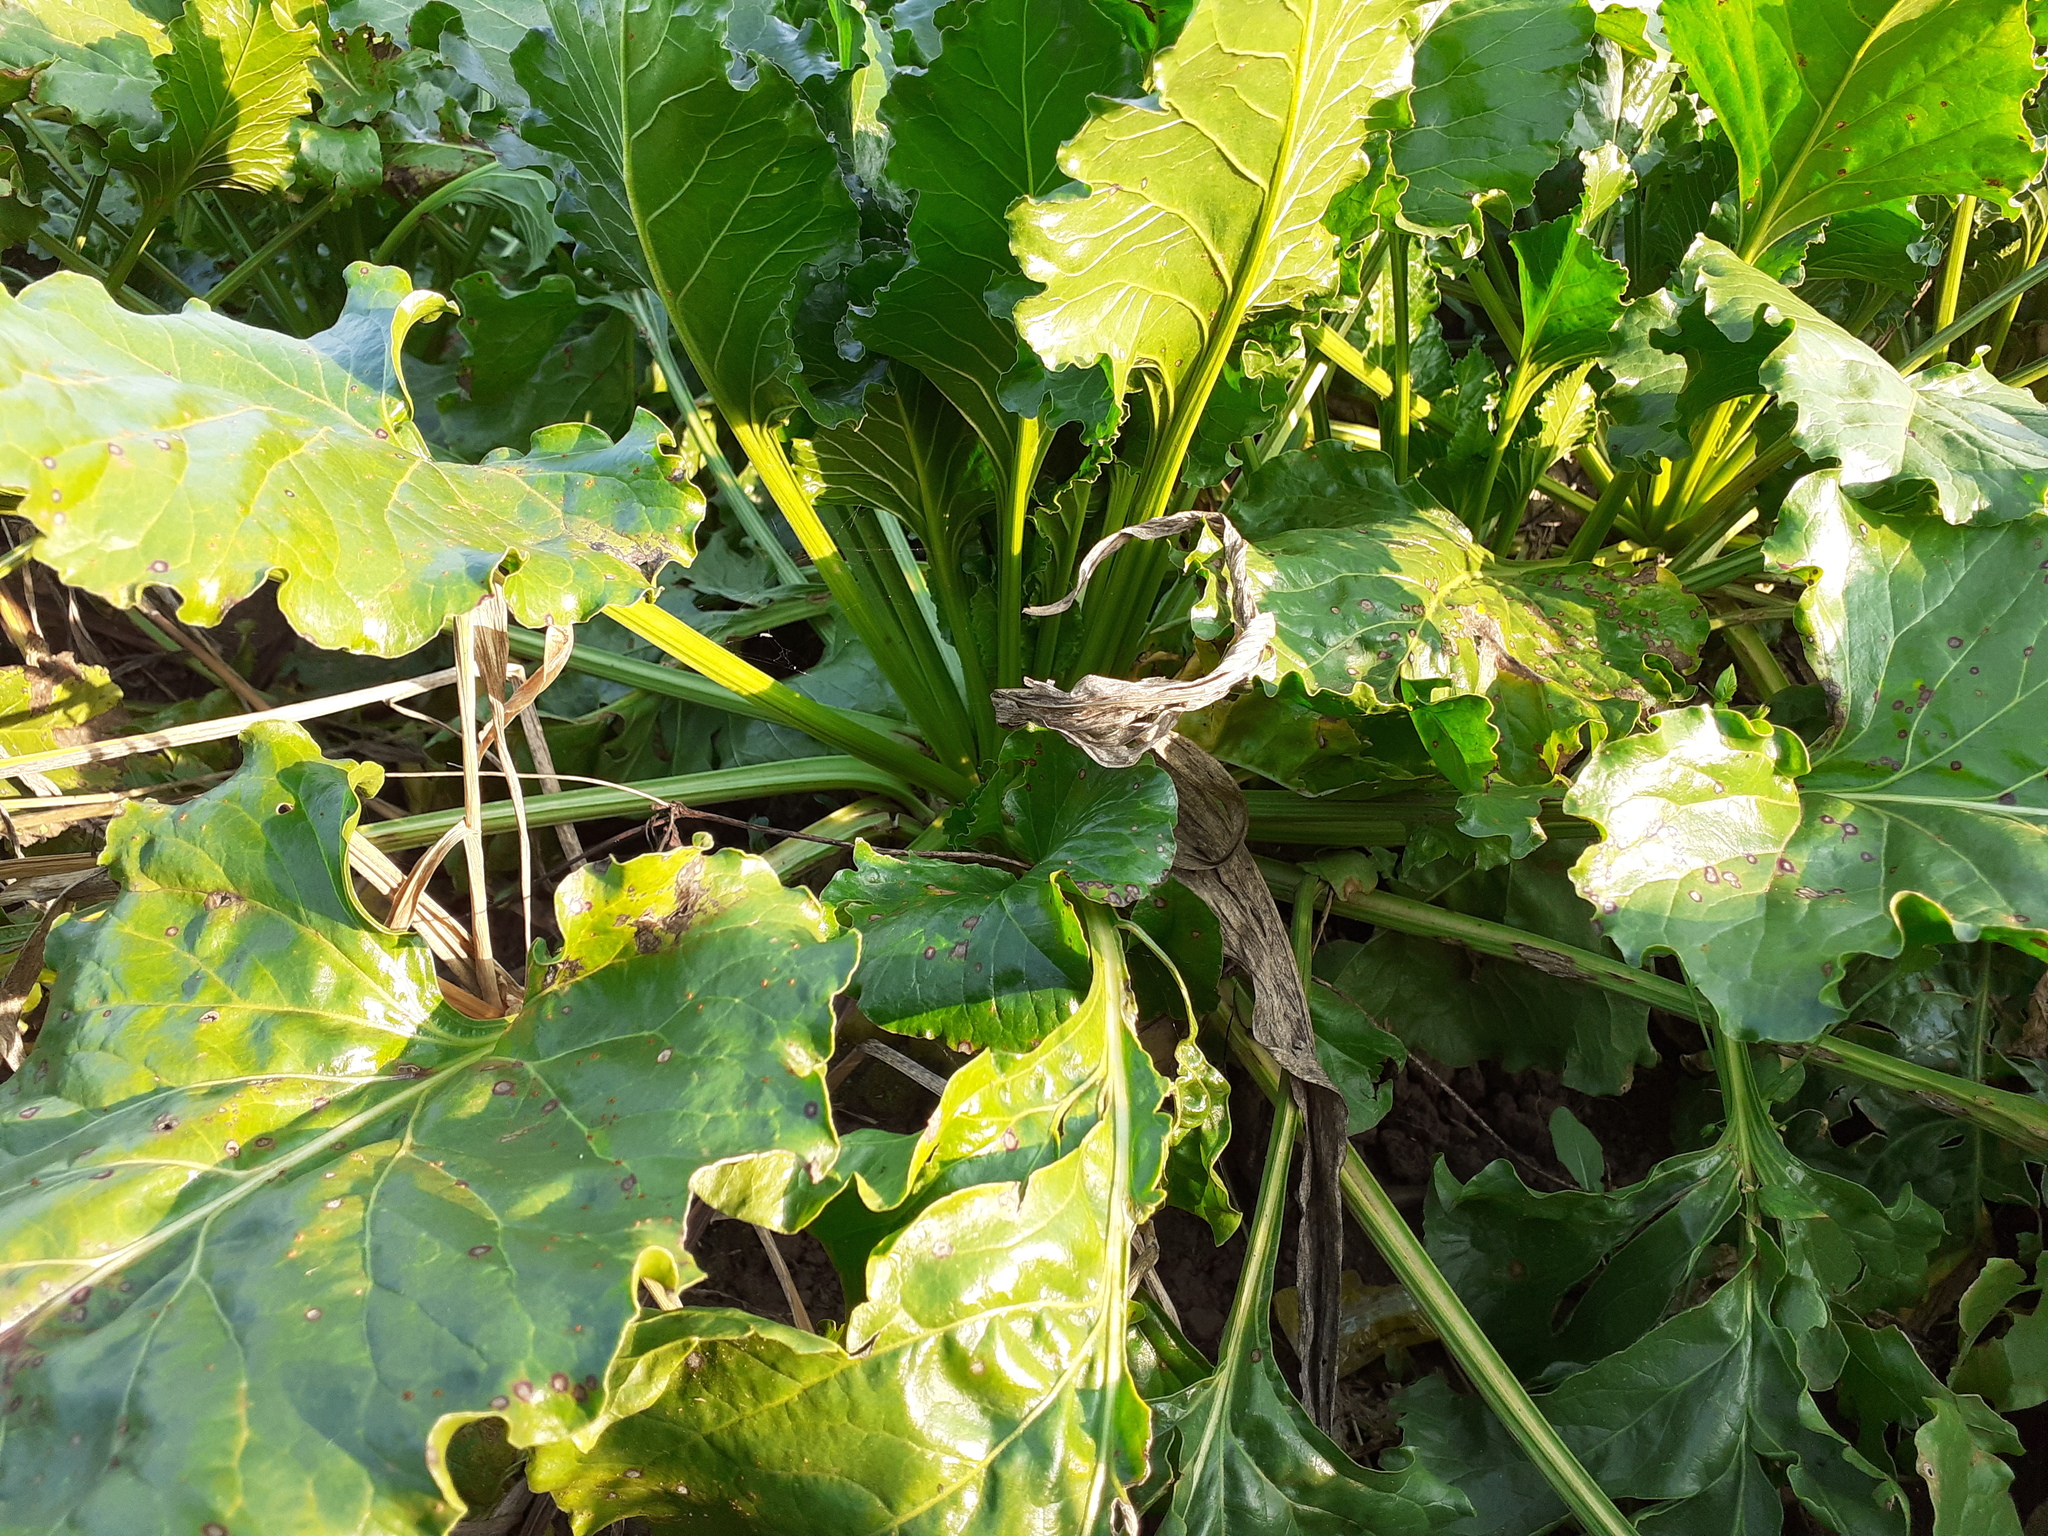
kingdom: Plantae
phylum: Tracheophyta
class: Magnoliopsida
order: Caryophyllales
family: Amaranthaceae
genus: Beta
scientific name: Beta vulgaris
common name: Beet
